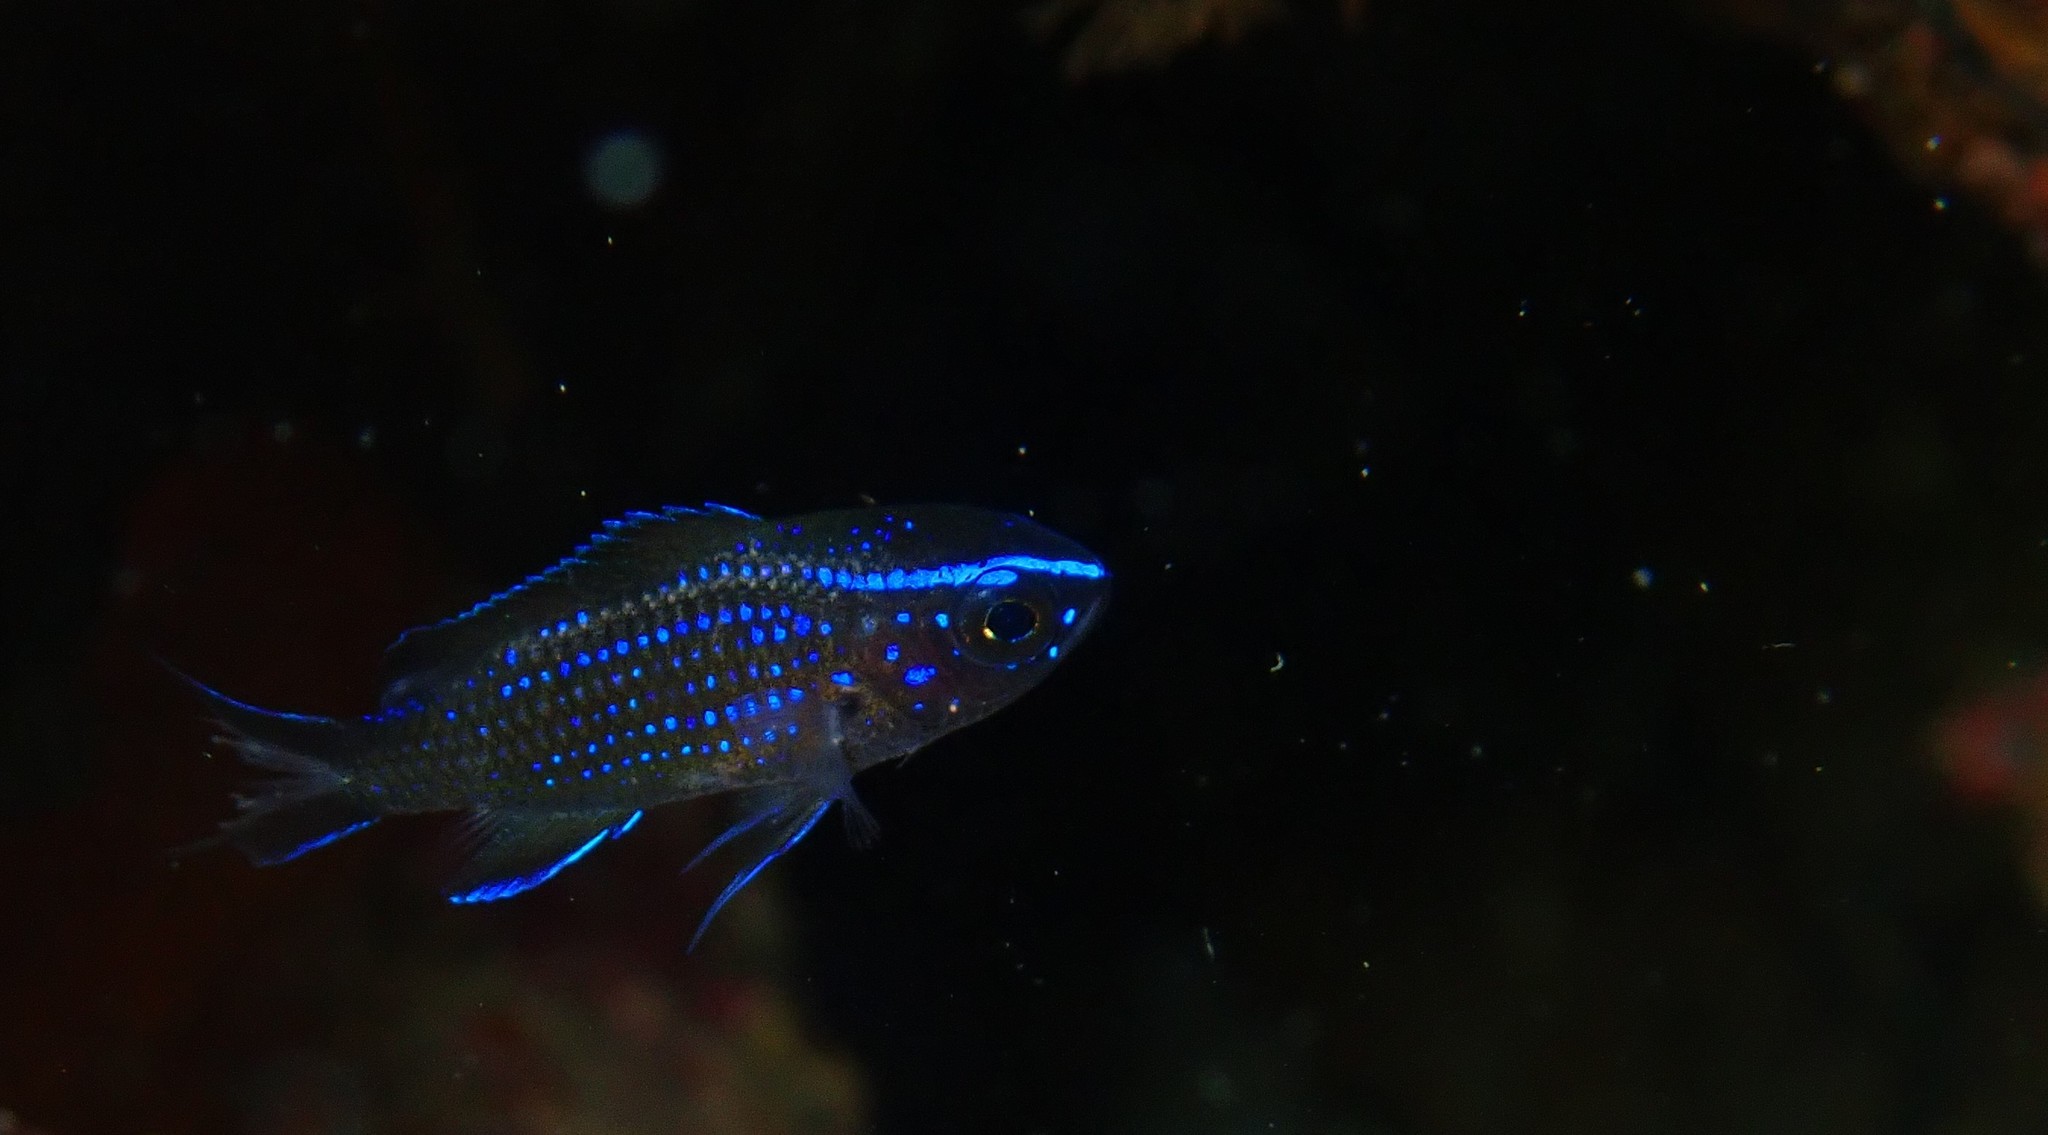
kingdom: Animalia
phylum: Chordata
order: Perciformes
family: Pomacentridae
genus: Chromis
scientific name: Chromis chromis
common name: Damselfish
